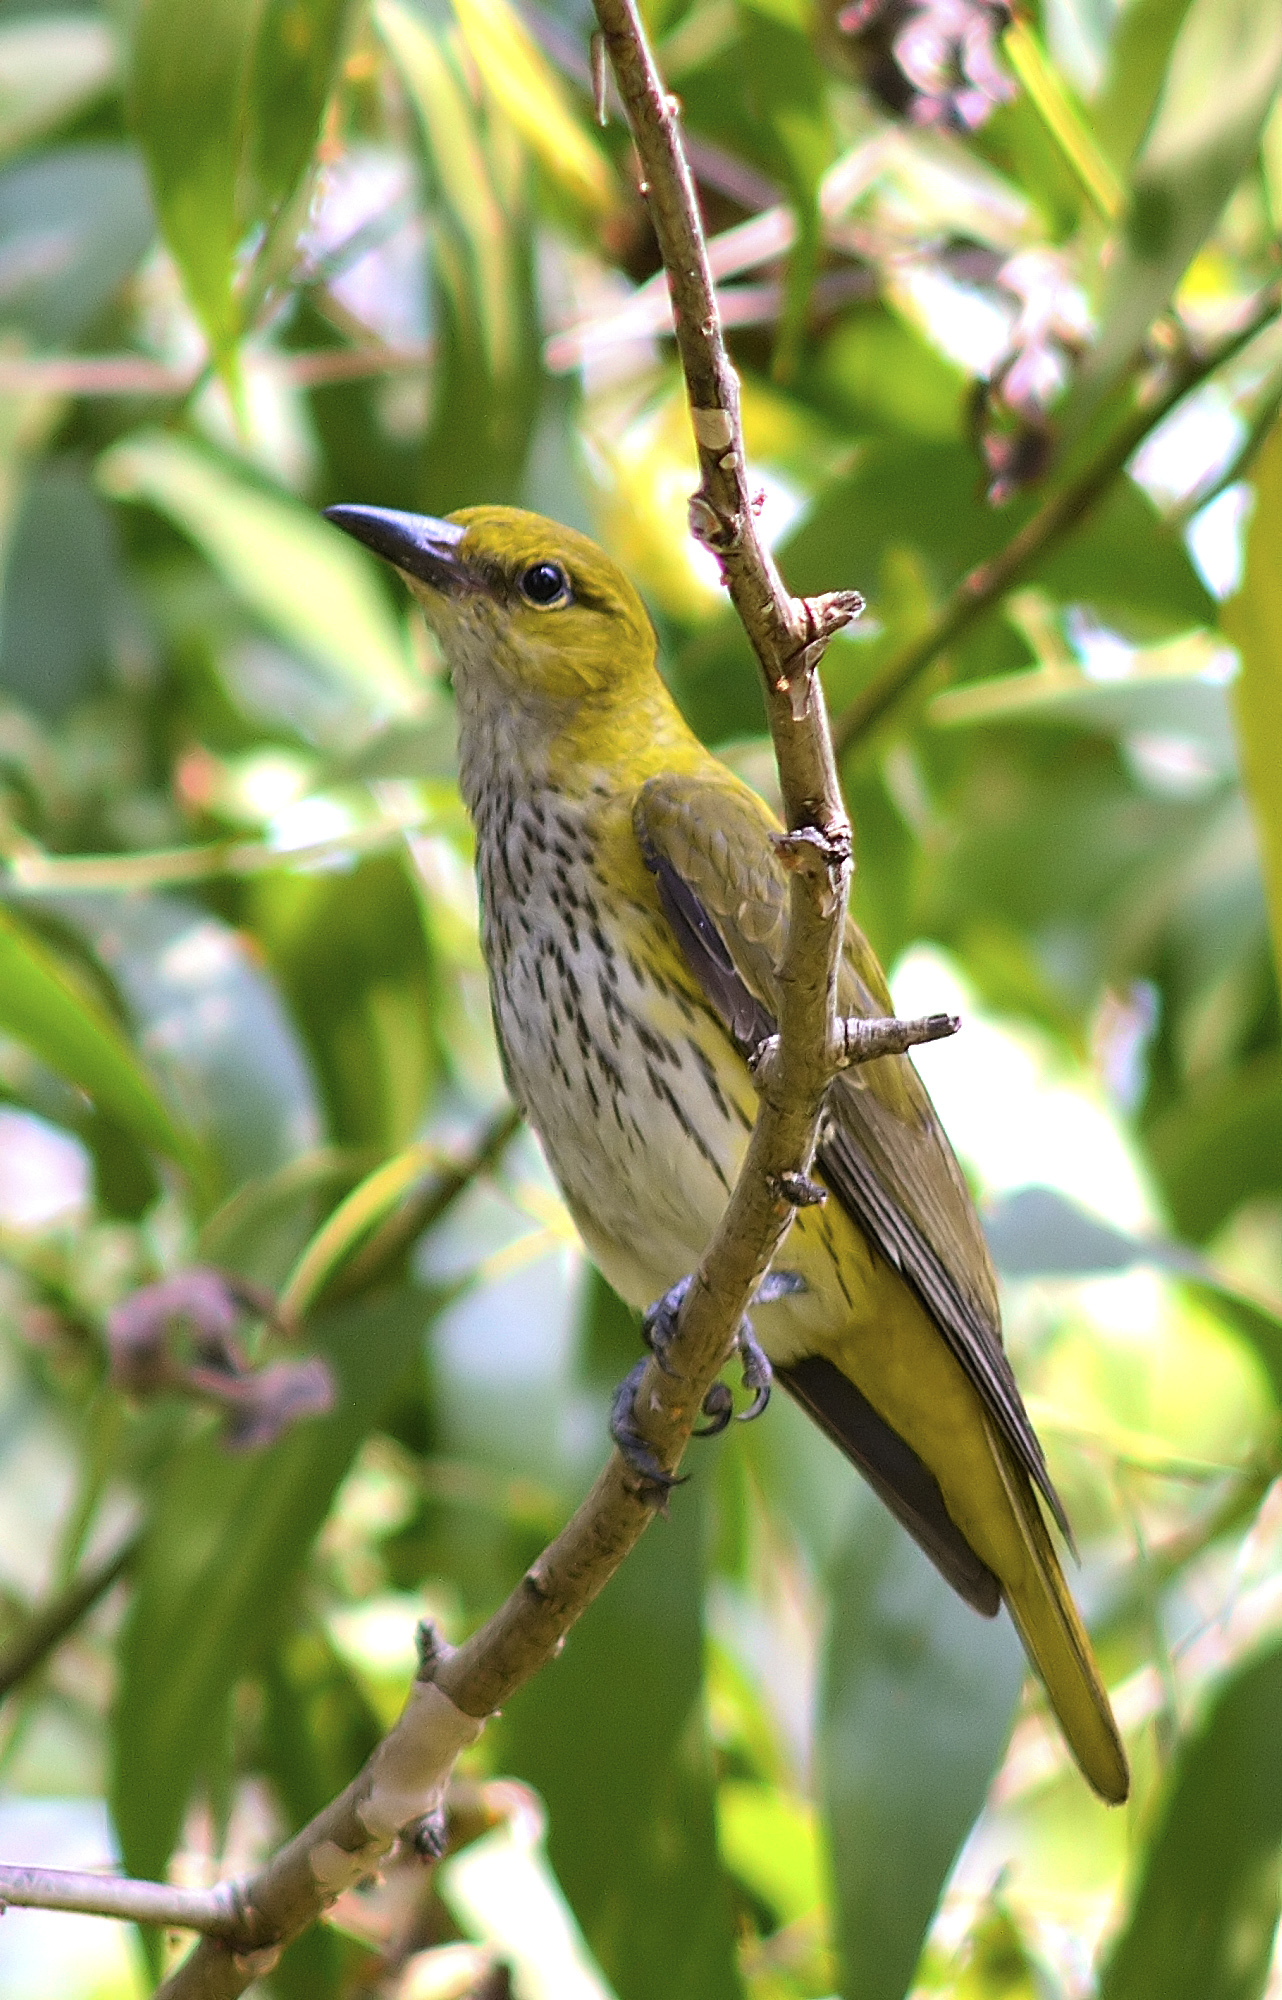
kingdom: Animalia
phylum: Chordata
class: Aves
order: Passeriformes
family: Oriolidae
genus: Oriolus
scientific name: Oriolus kundoo
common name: Indian golden oriole
